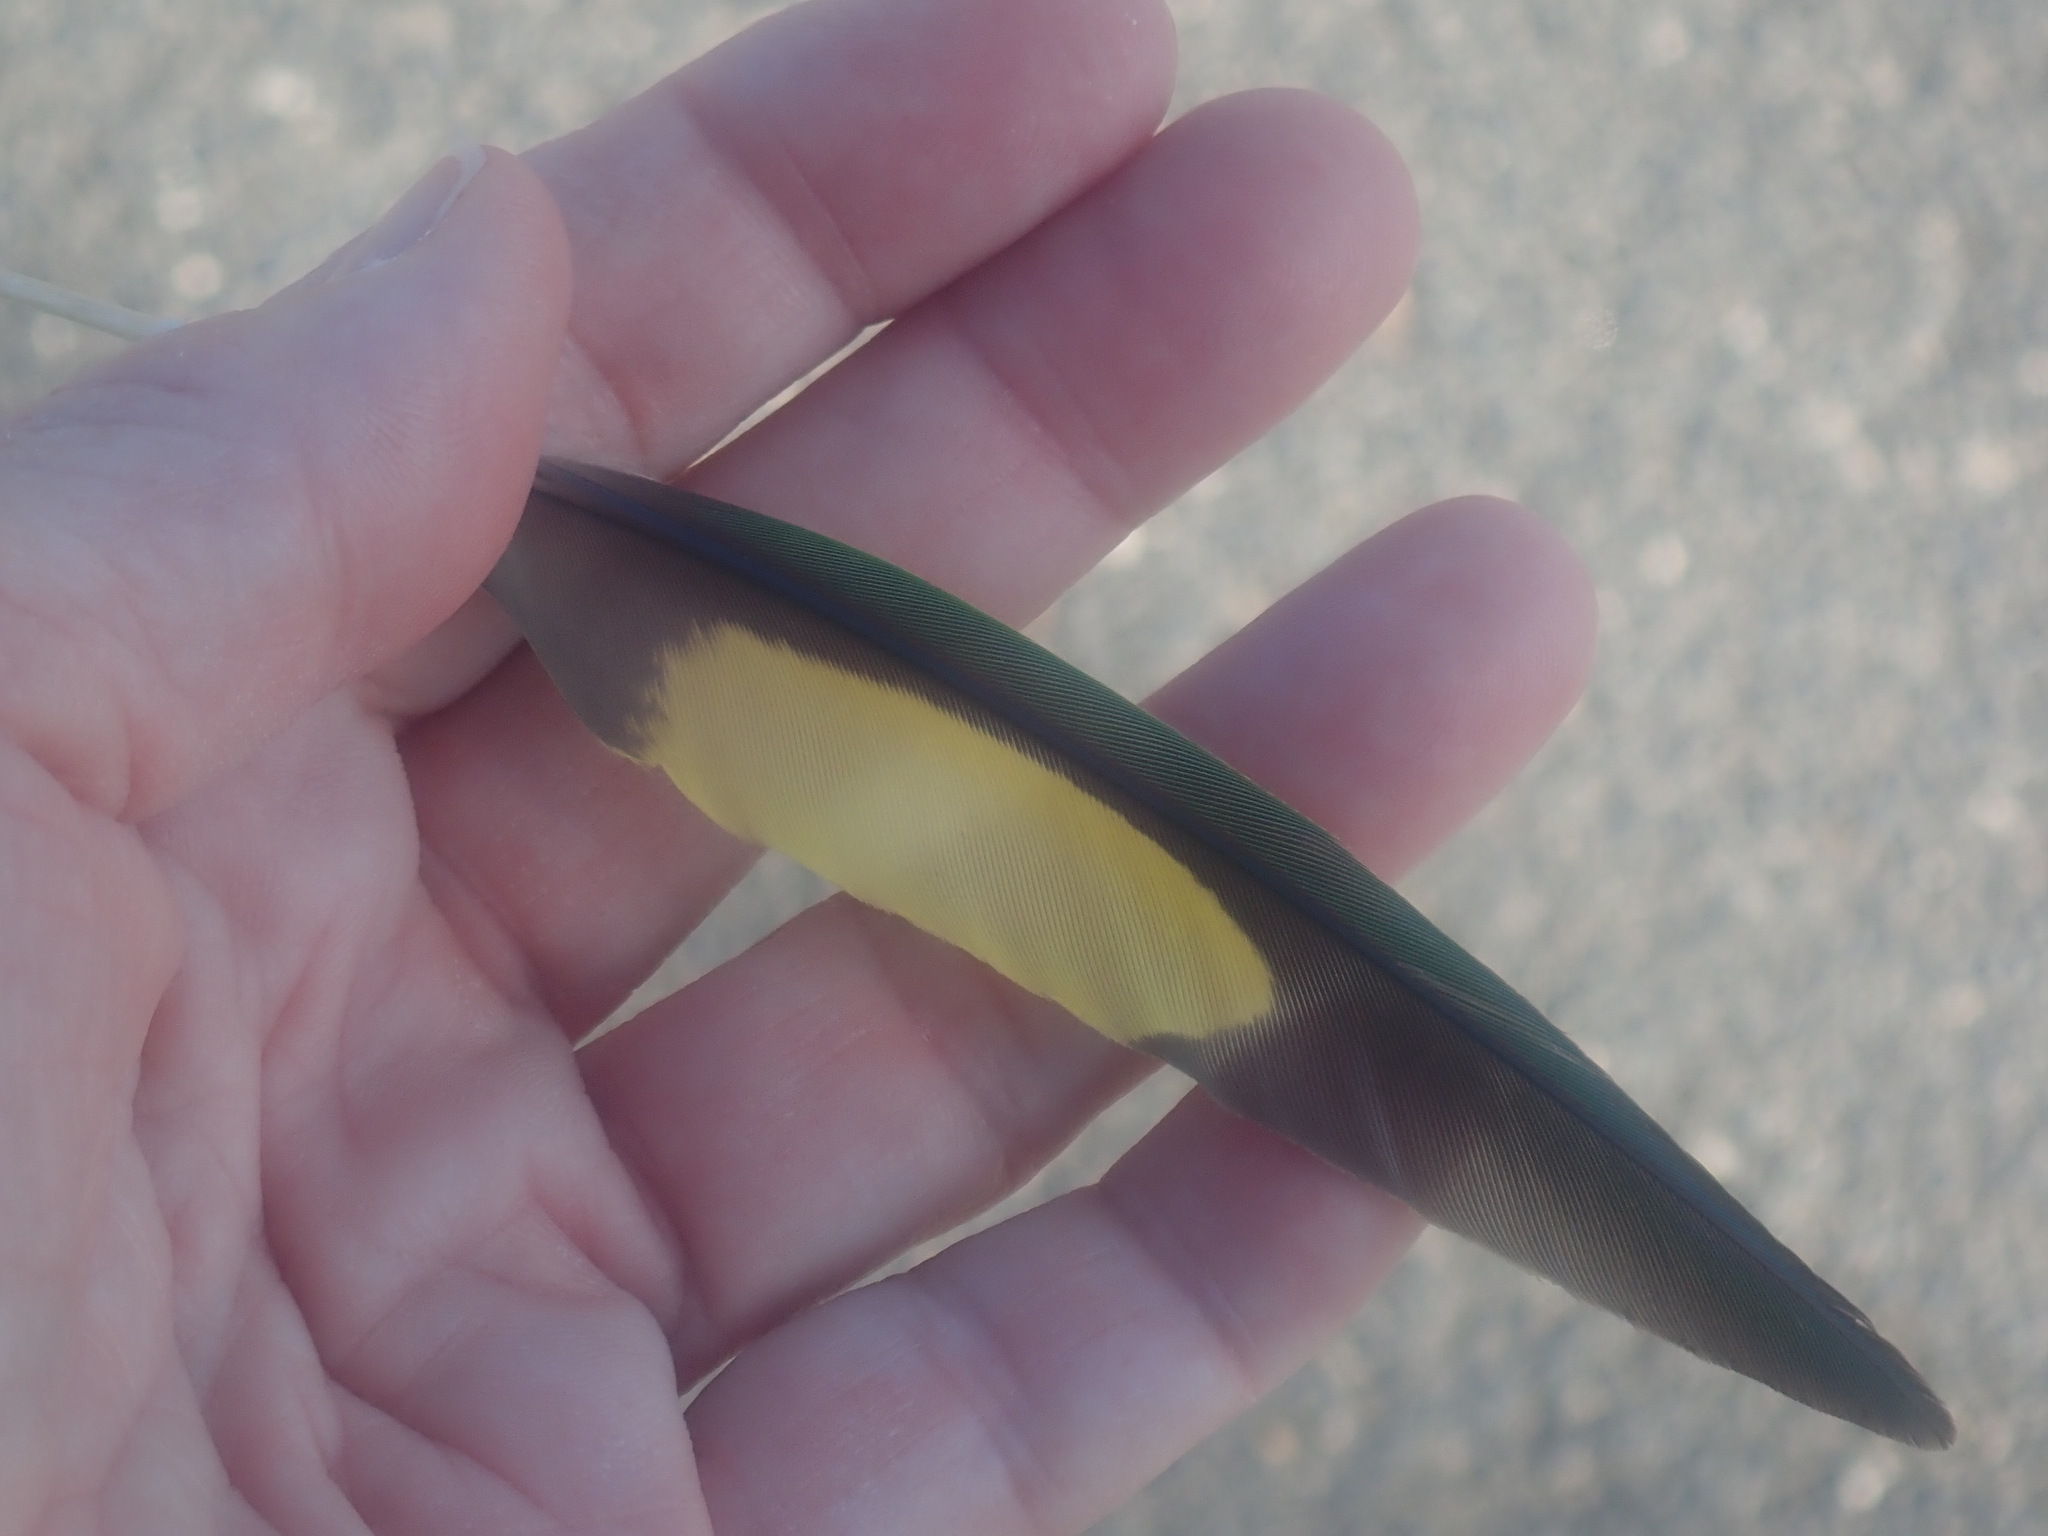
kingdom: Animalia
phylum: Chordata
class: Aves
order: Psittaciformes
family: Psittacidae
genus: Trichoglossus
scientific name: Trichoglossus haematodus
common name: Coconut lorikeet
